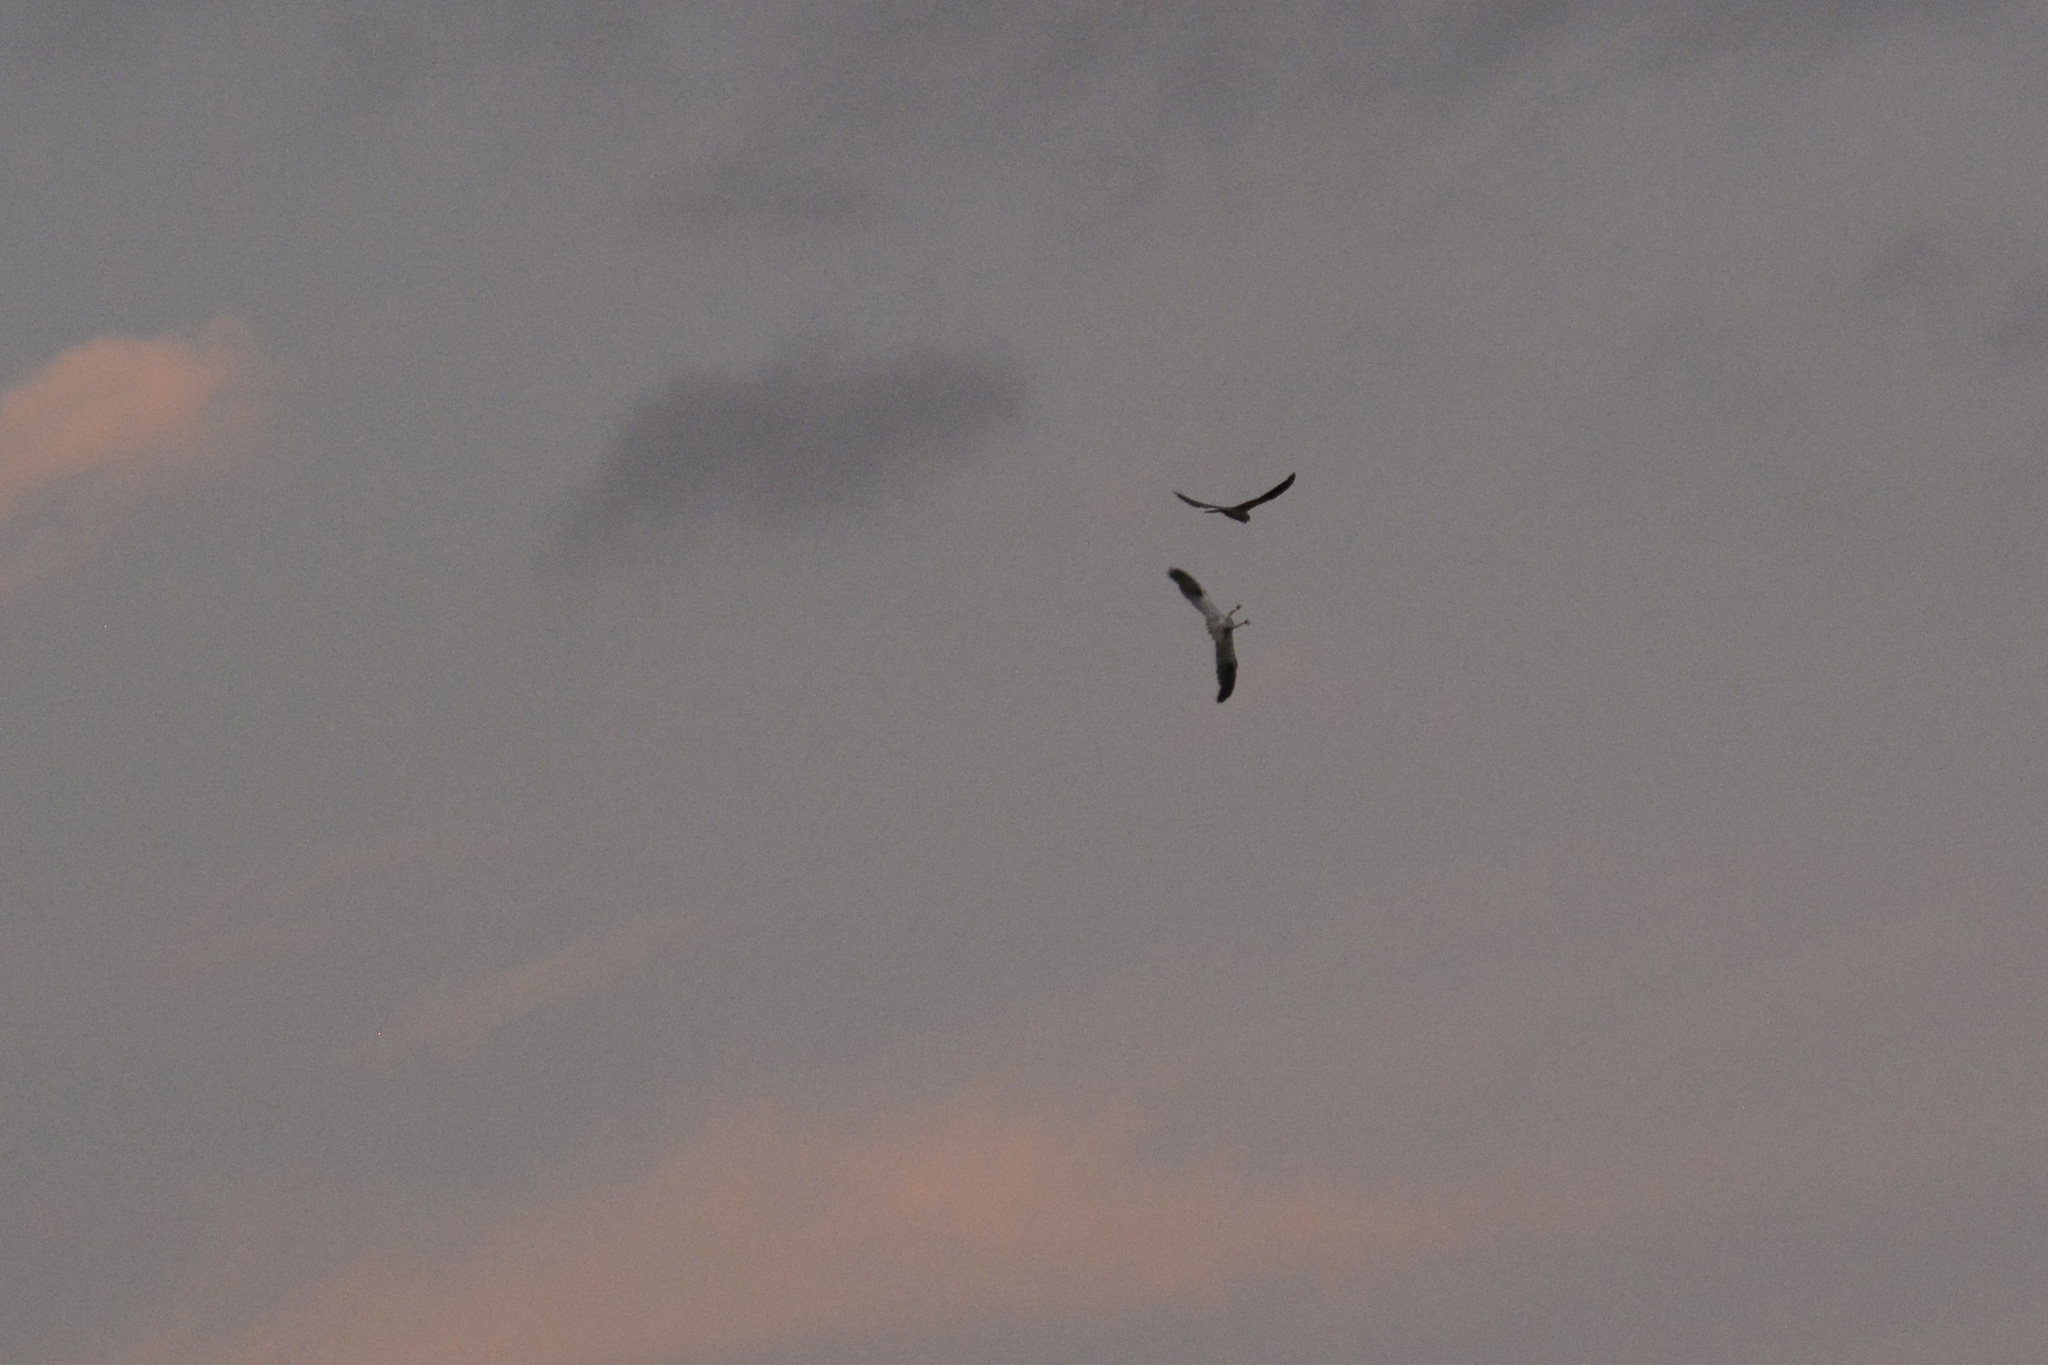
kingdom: Animalia
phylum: Chordata
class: Aves
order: Accipitriformes
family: Accipitridae
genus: Elanus
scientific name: Elanus axillaris
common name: Black-shouldered kite
